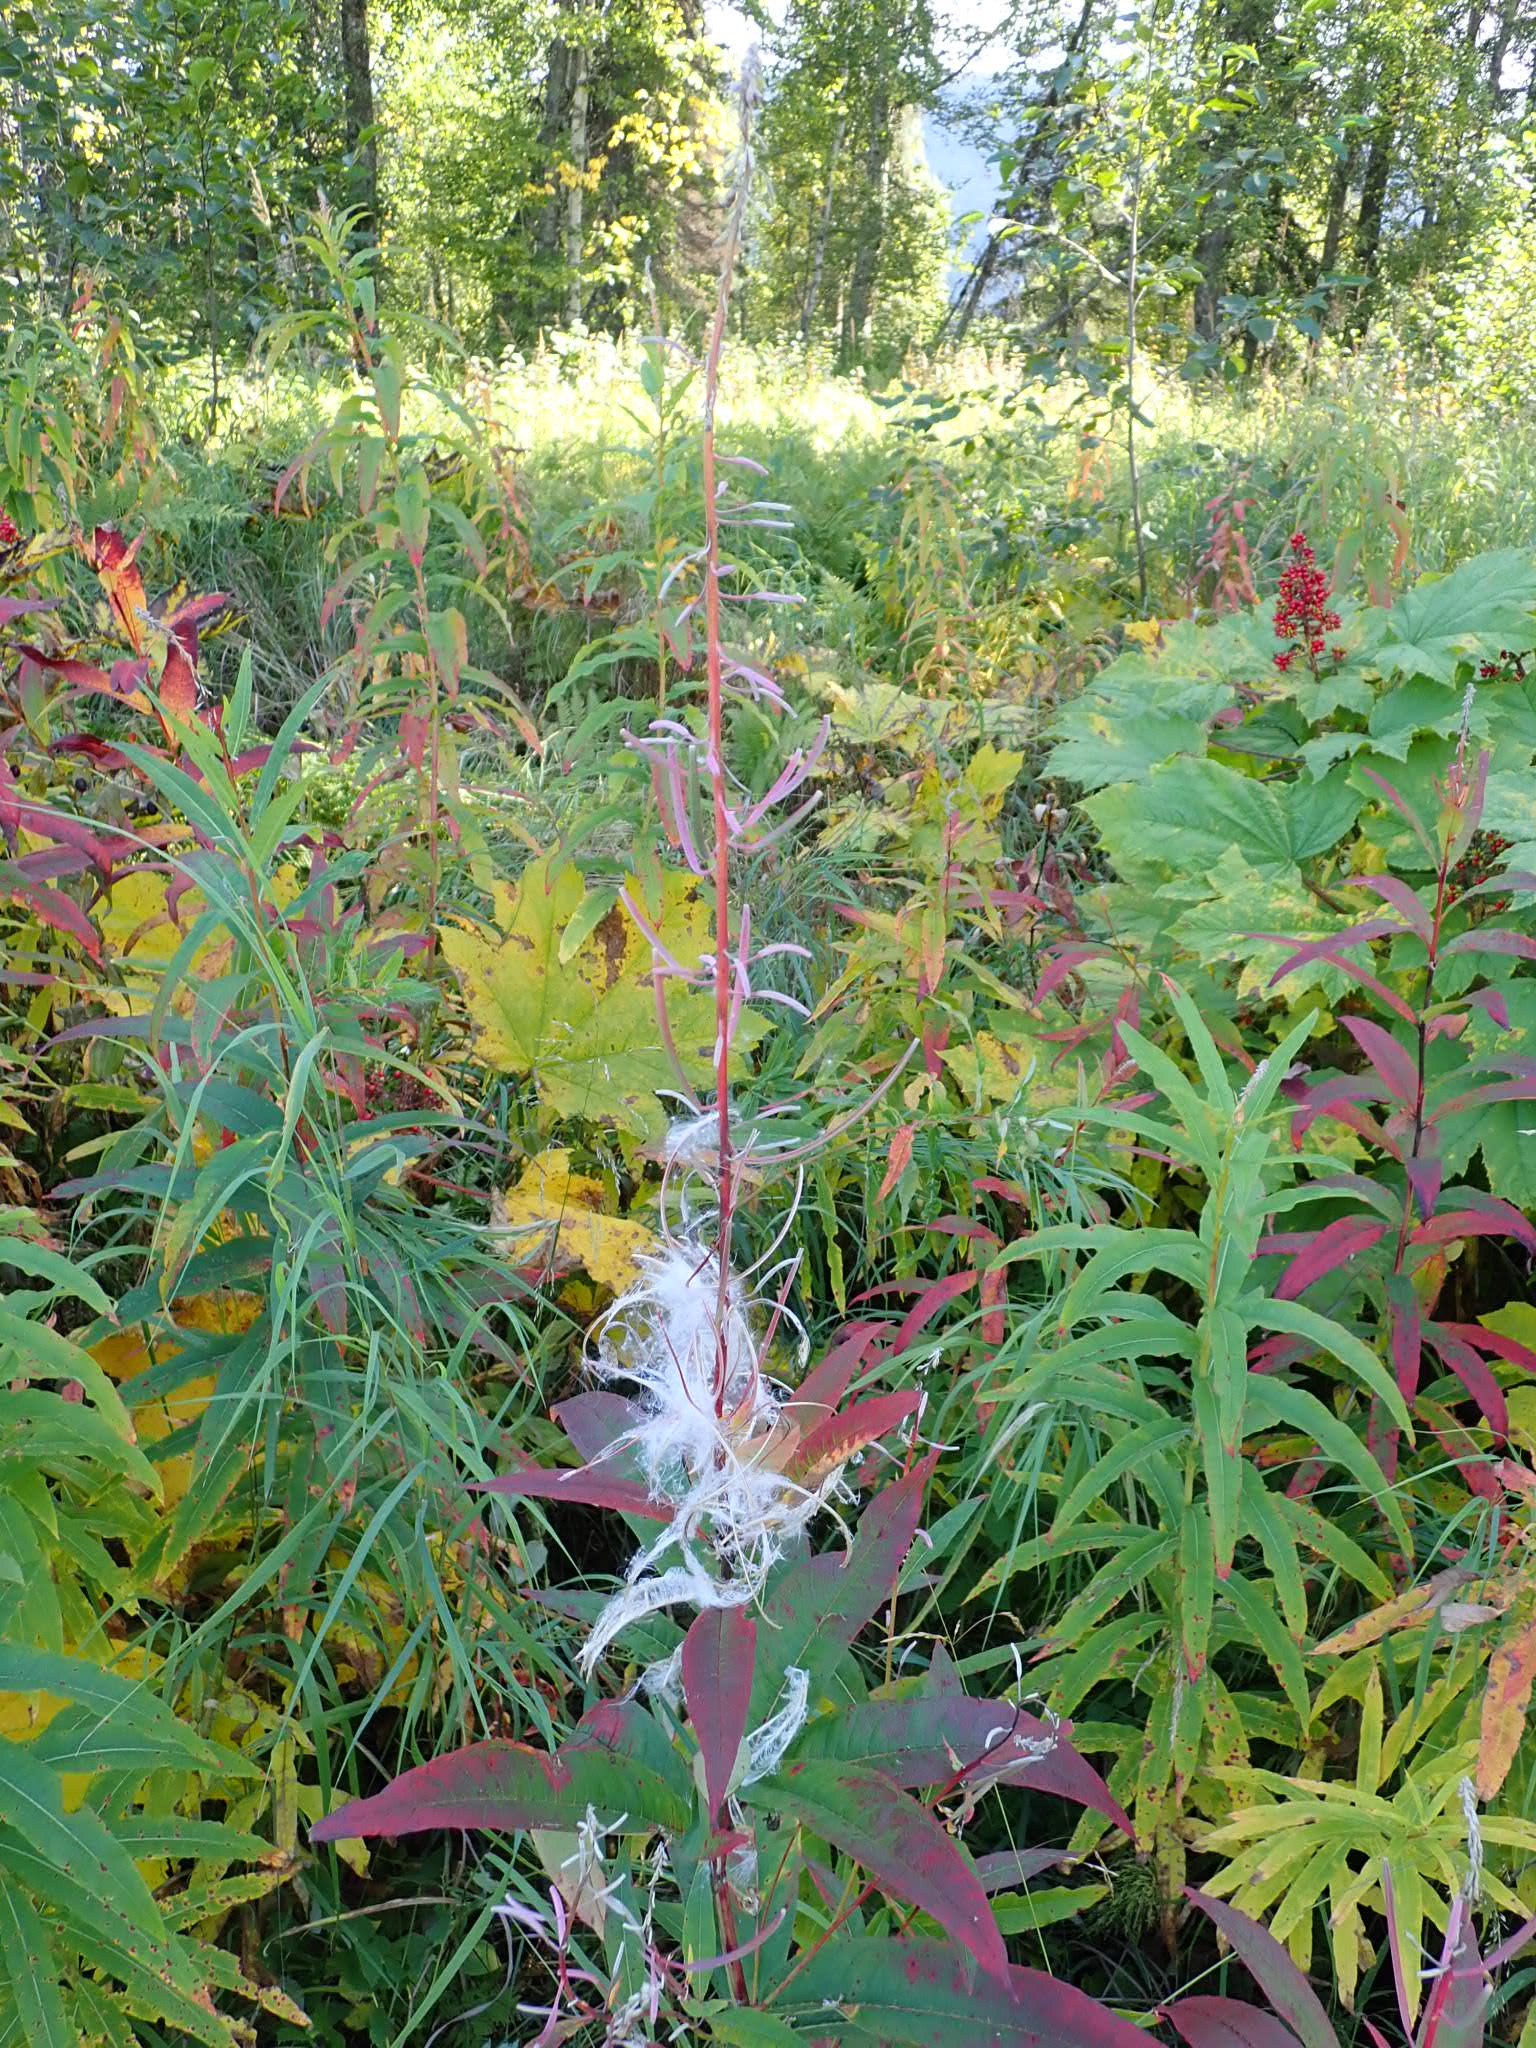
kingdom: Plantae
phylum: Tracheophyta
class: Magnoliopsida
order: Myrtales
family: Onagraceae
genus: Chamaenerion
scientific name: Chamaenerion angustifolium
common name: Fireweed
